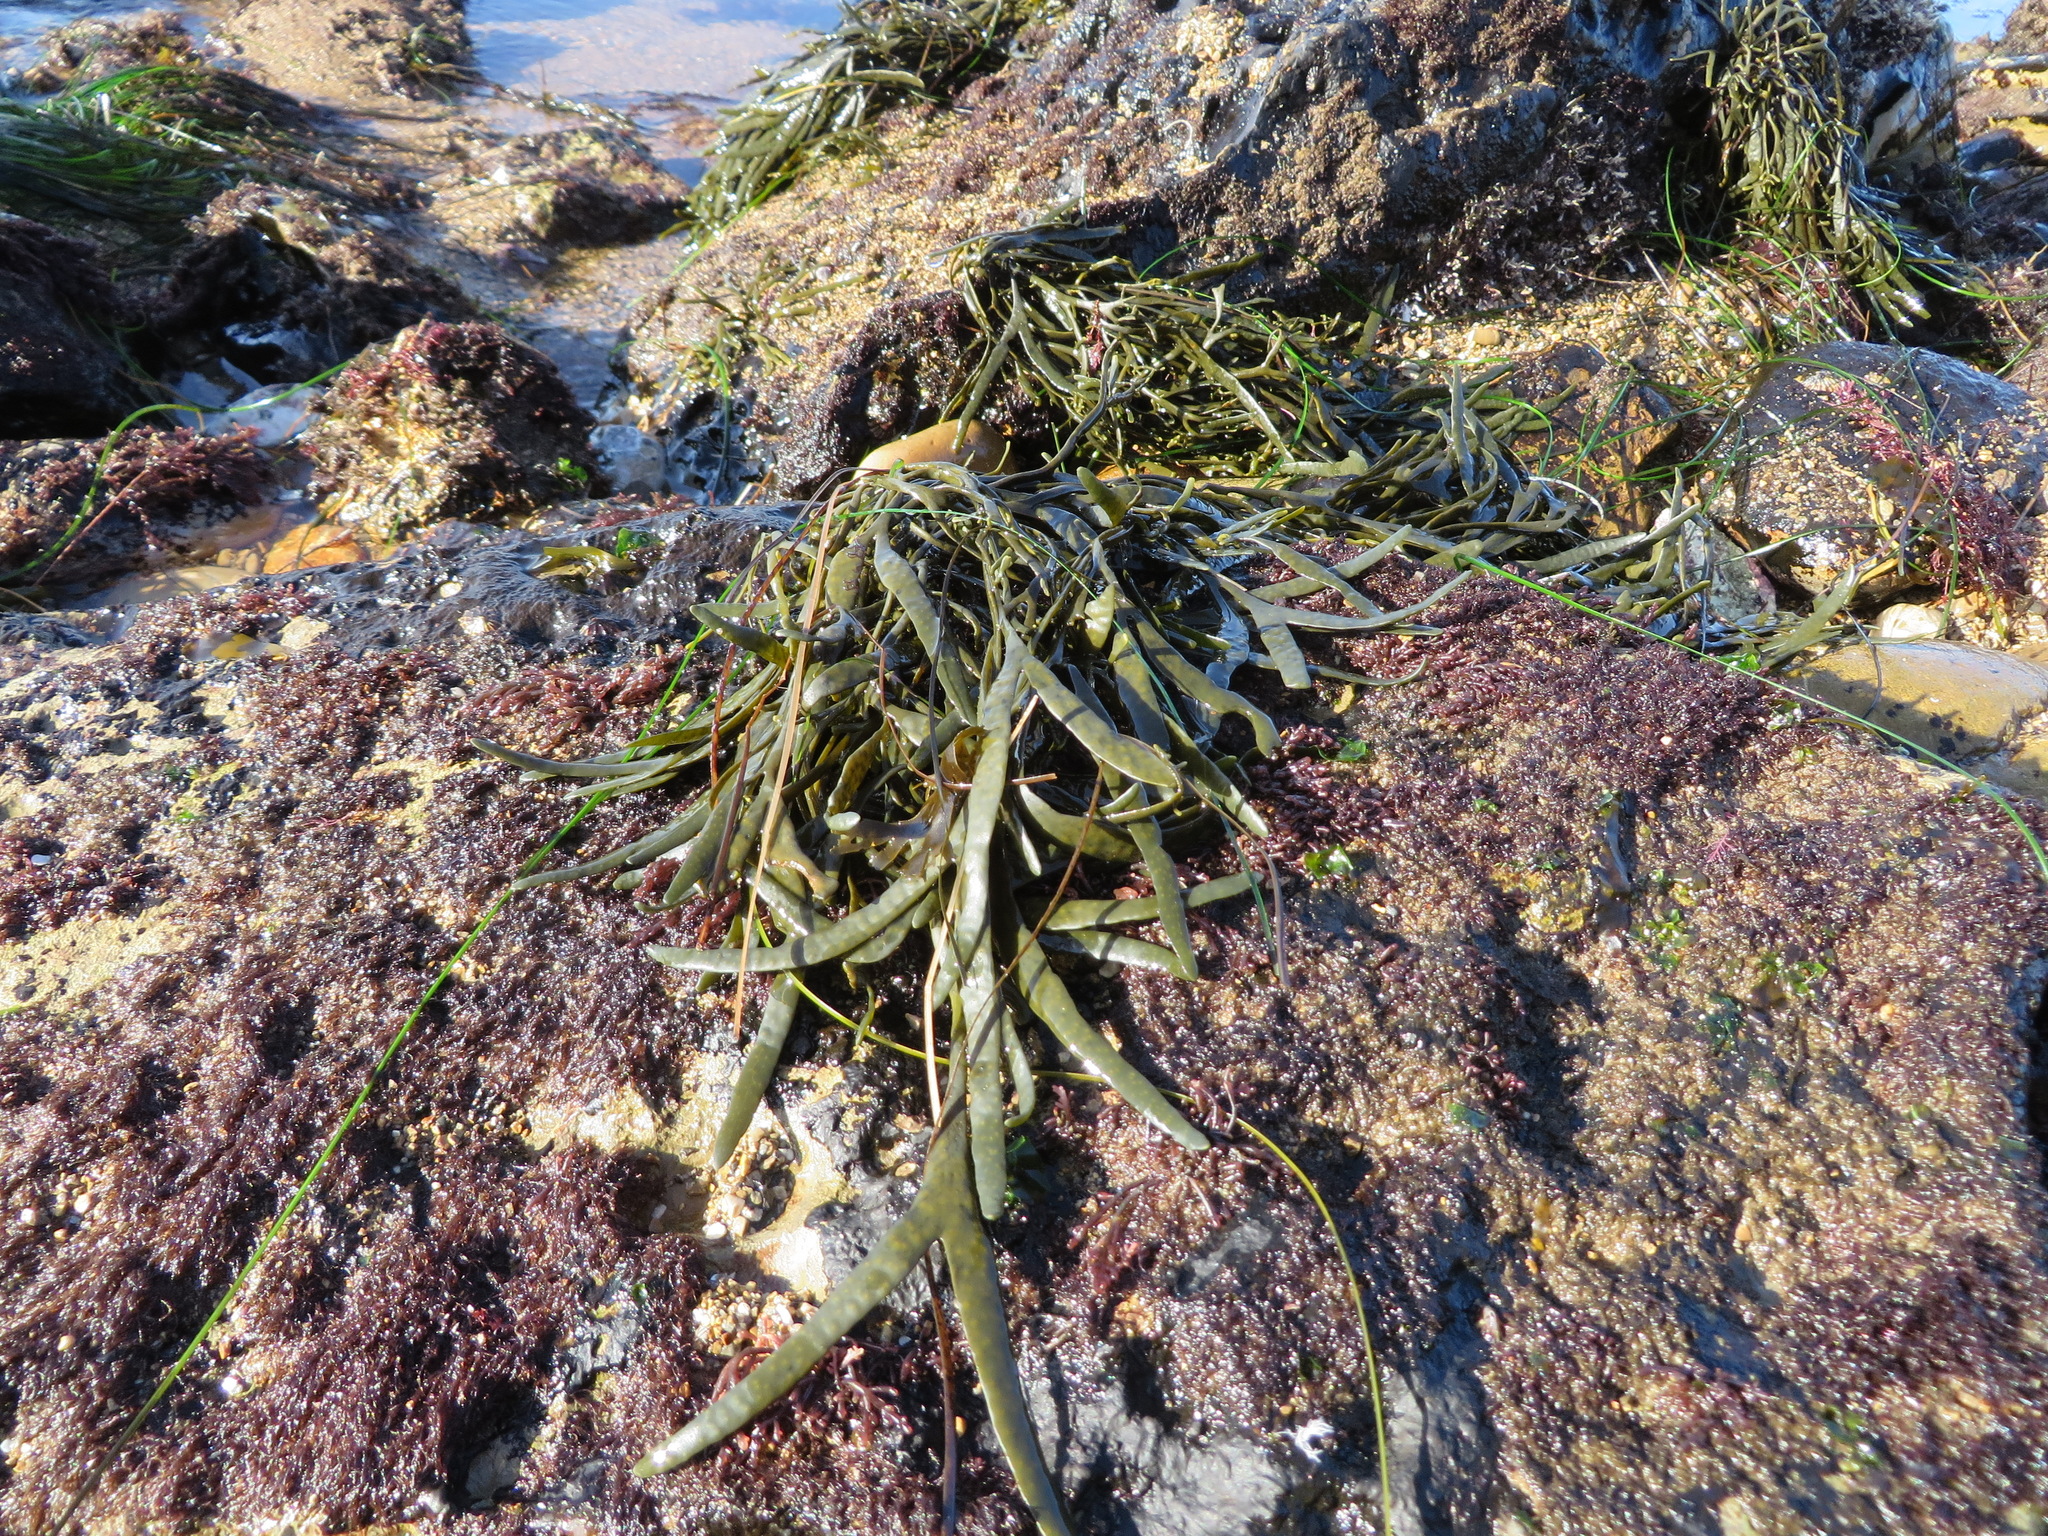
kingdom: Chromista
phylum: Ochrophyta
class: Phaeophyceae
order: Fucales
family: Fucaceae
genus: Silvetia
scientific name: Silvetia
